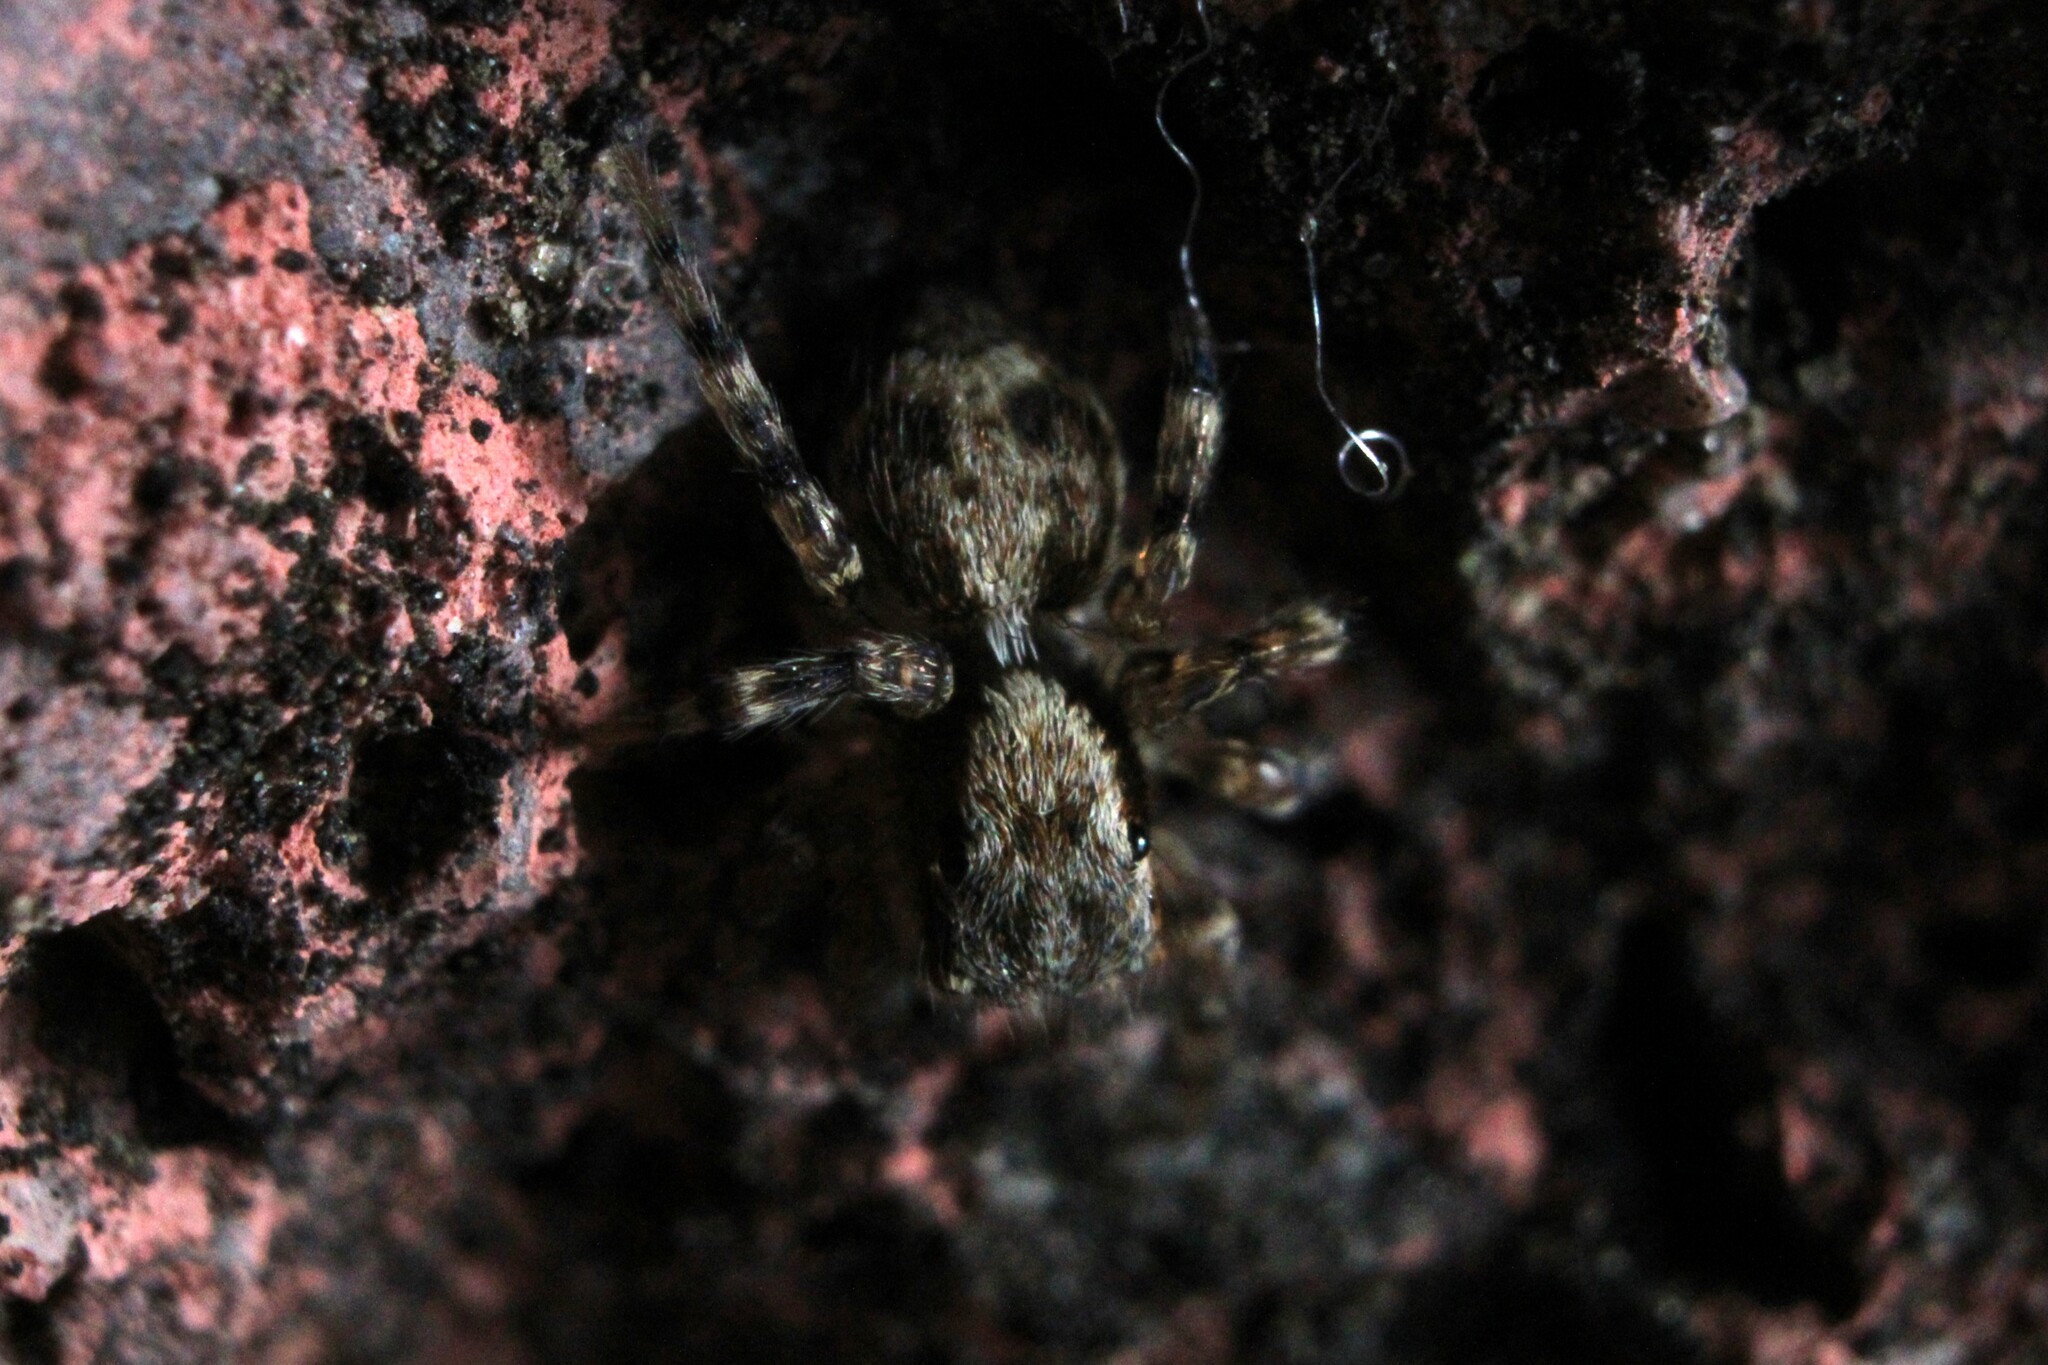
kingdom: Animalia
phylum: Arthropoda
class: Arachnida
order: Araneae
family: Salticidae
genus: Naphrys
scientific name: Naphrys pulex
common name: Flea jumping spider
